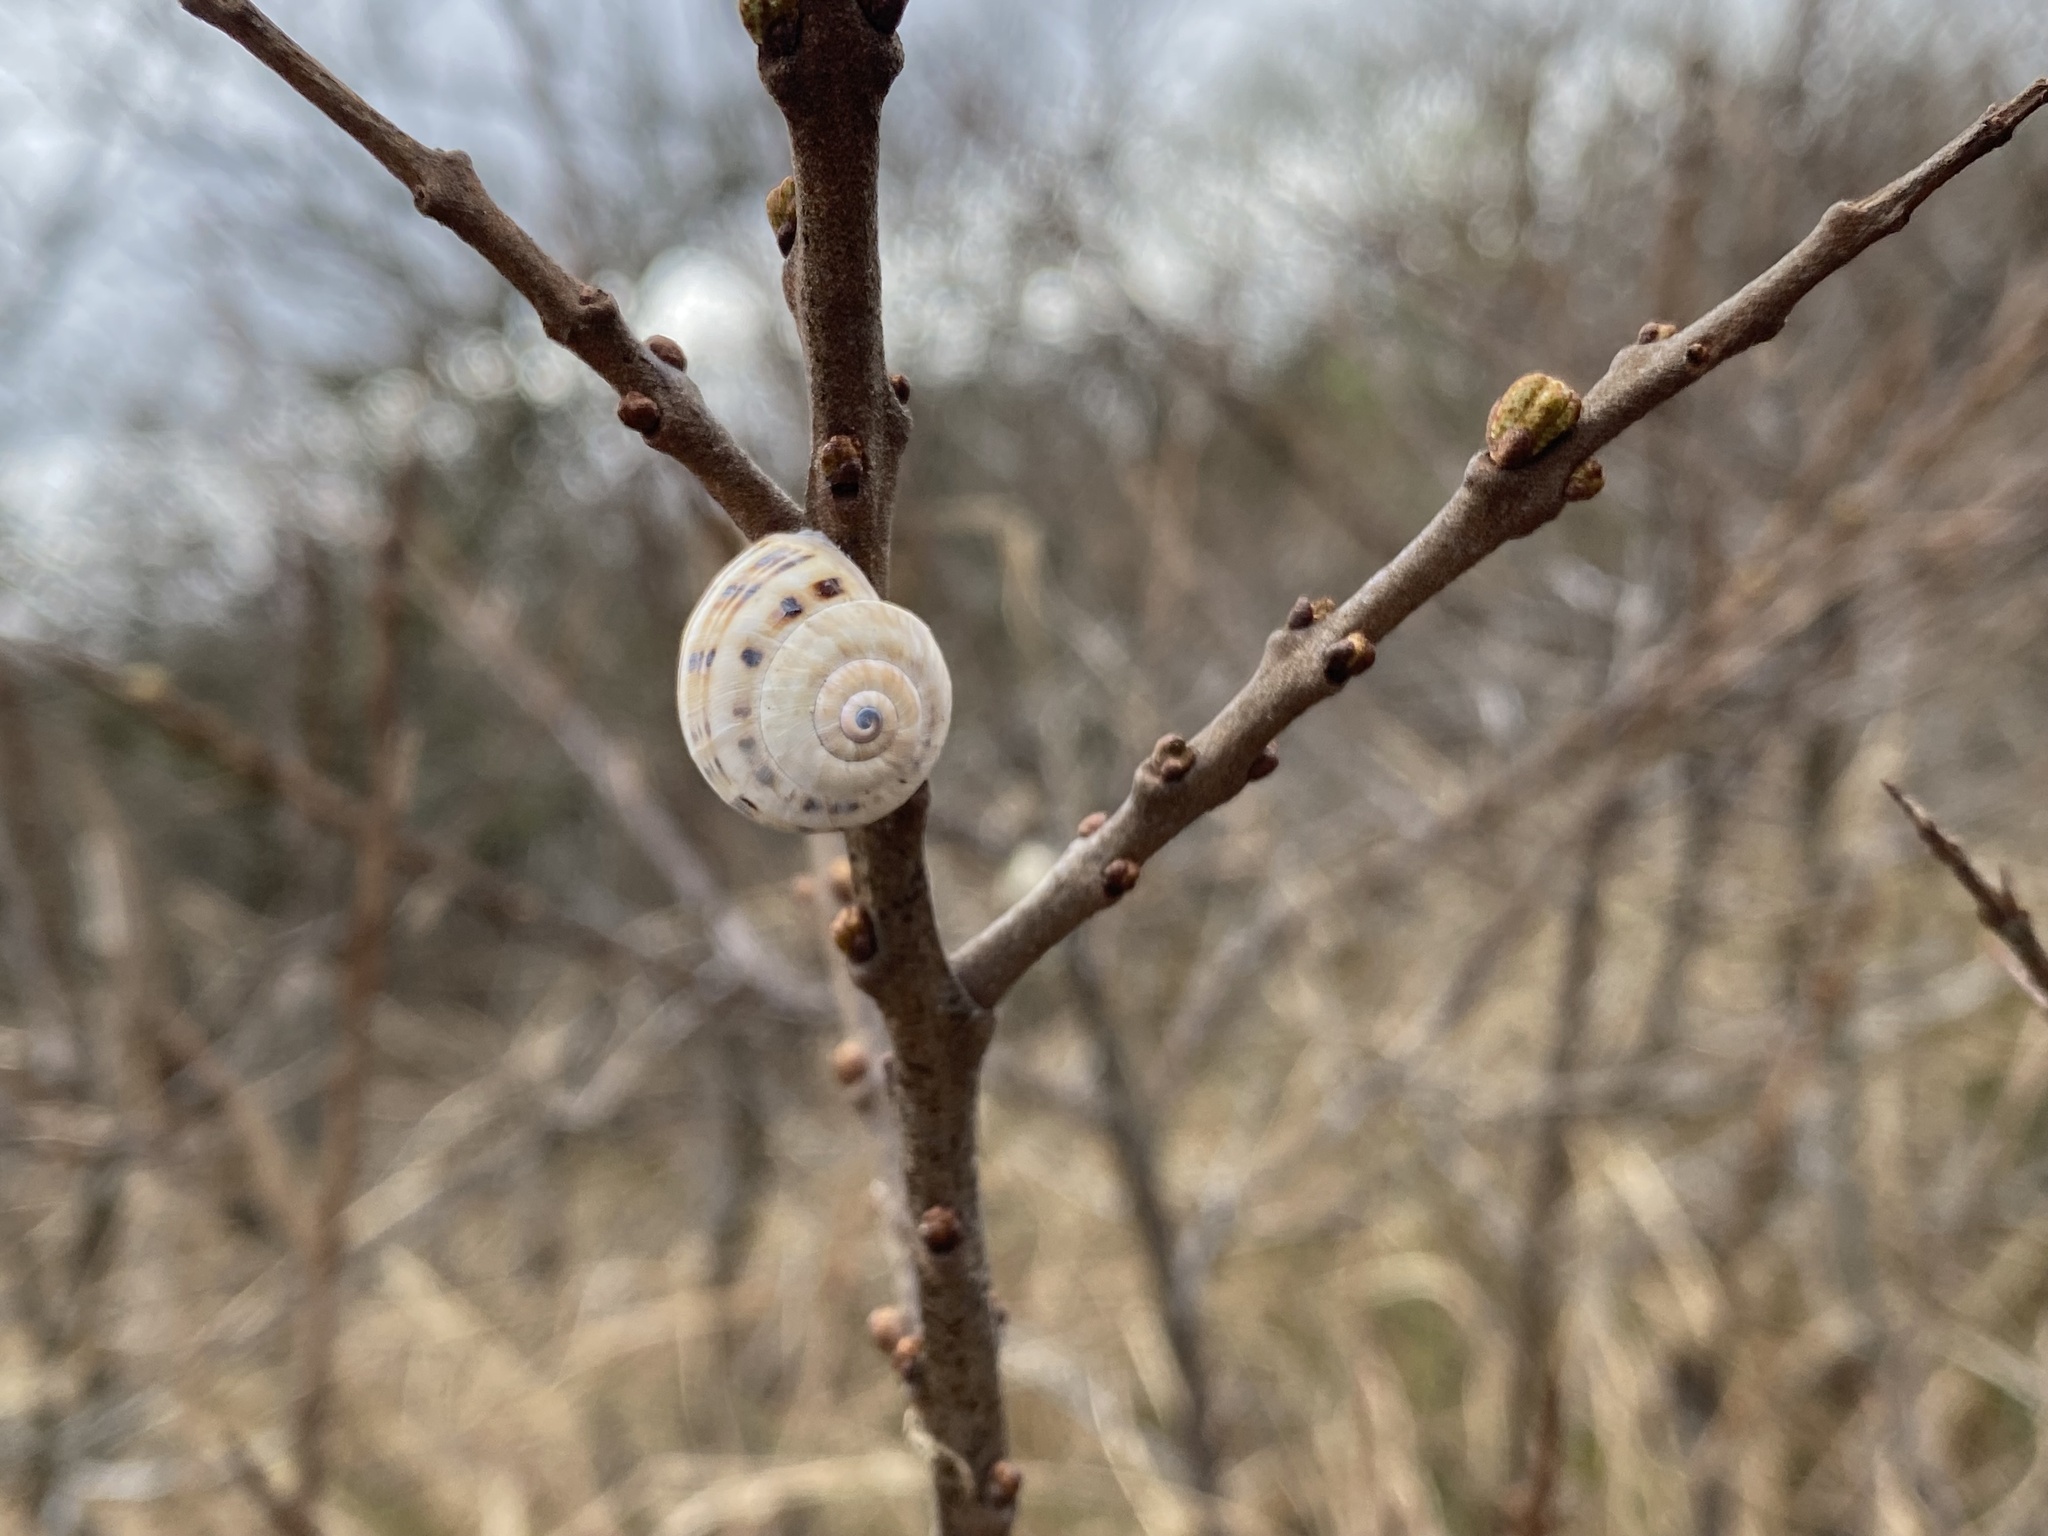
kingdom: Animalia
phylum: Mollusca
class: Gastropoda
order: Stylommatophora
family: Helicidae
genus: Theba
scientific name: Theba pisana
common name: White snail
